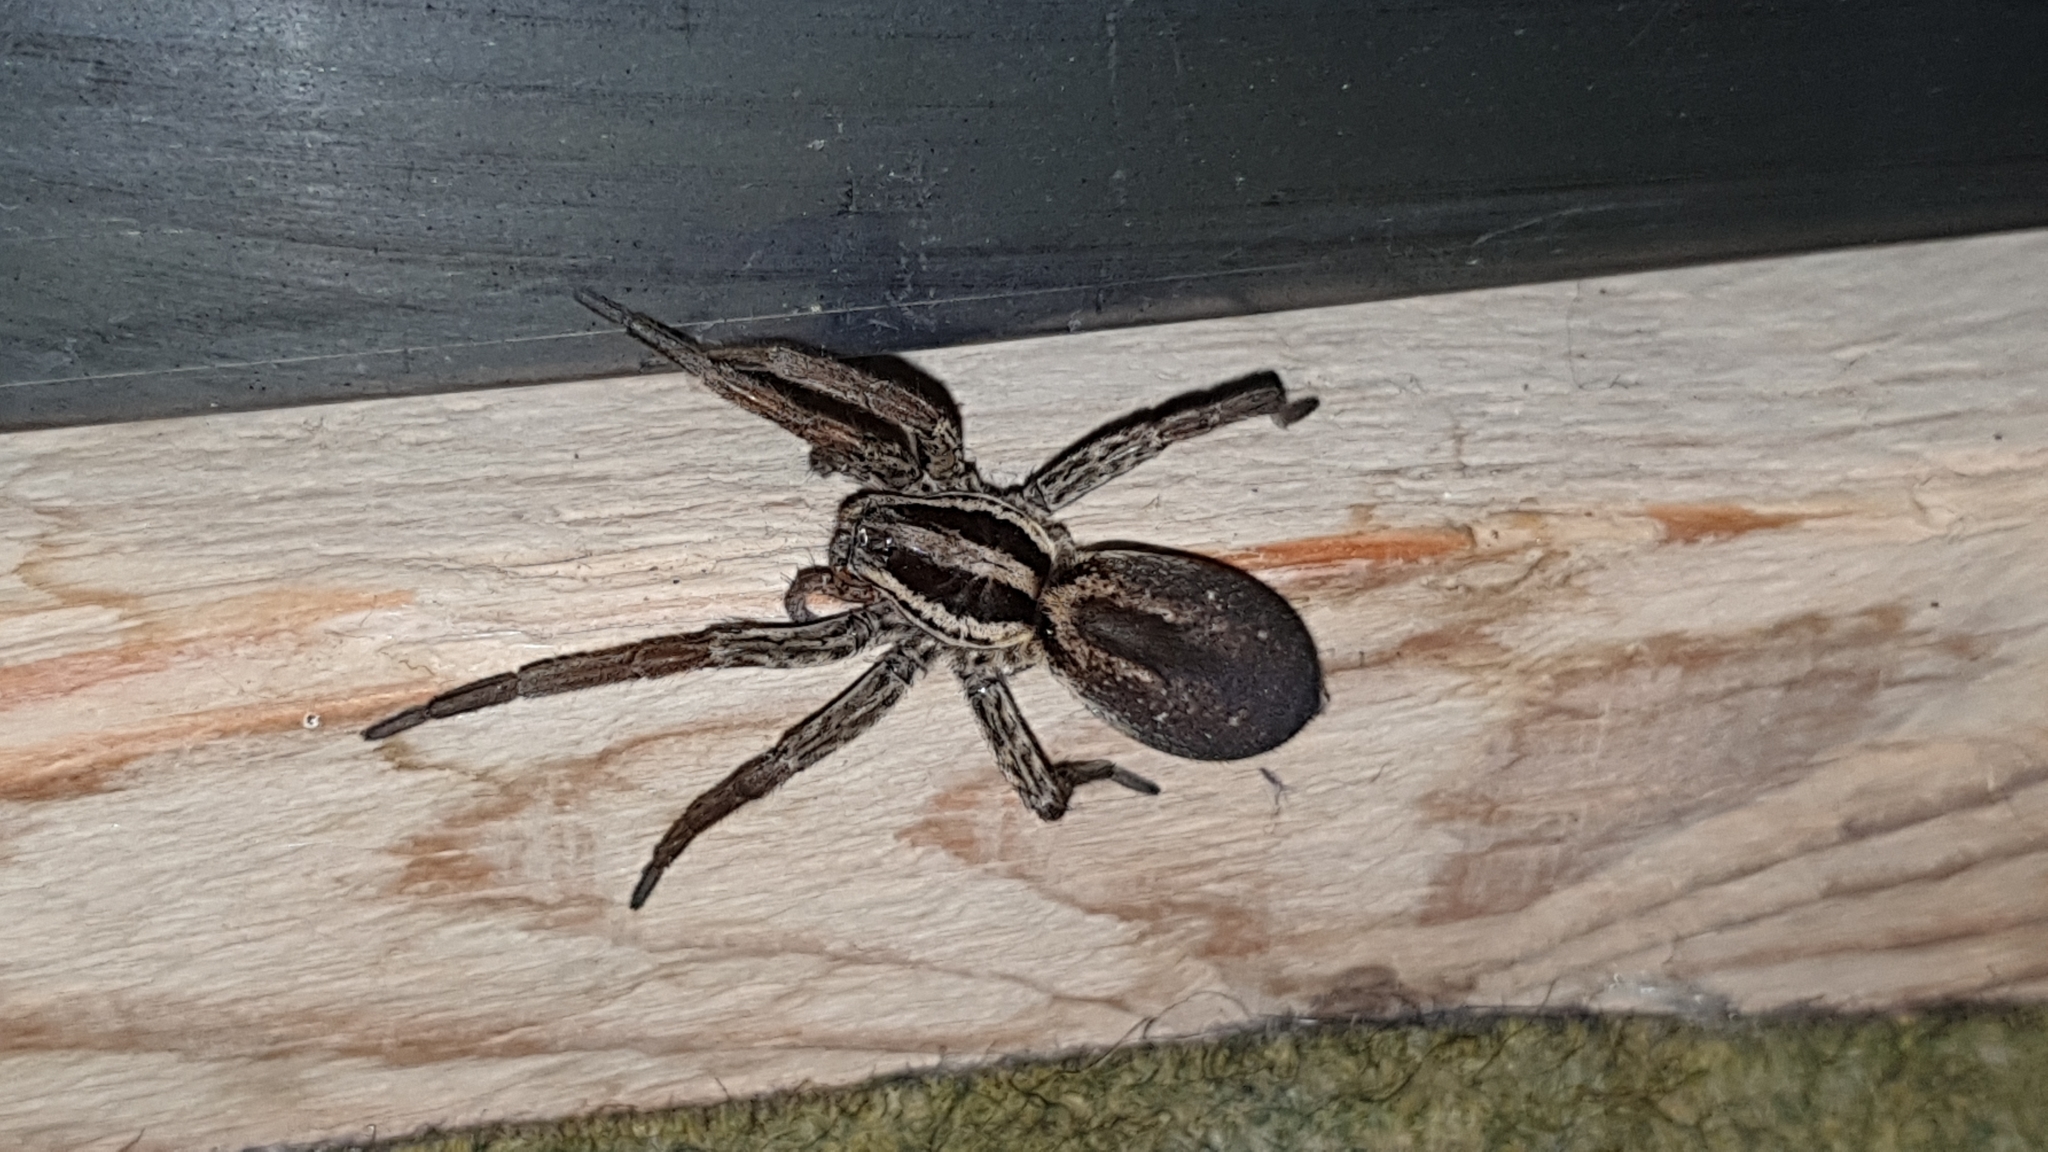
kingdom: Animalia
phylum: Arthropoda
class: Arachnida
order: Araneae
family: Lycosidae
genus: Hogna
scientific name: Hogna radiata
